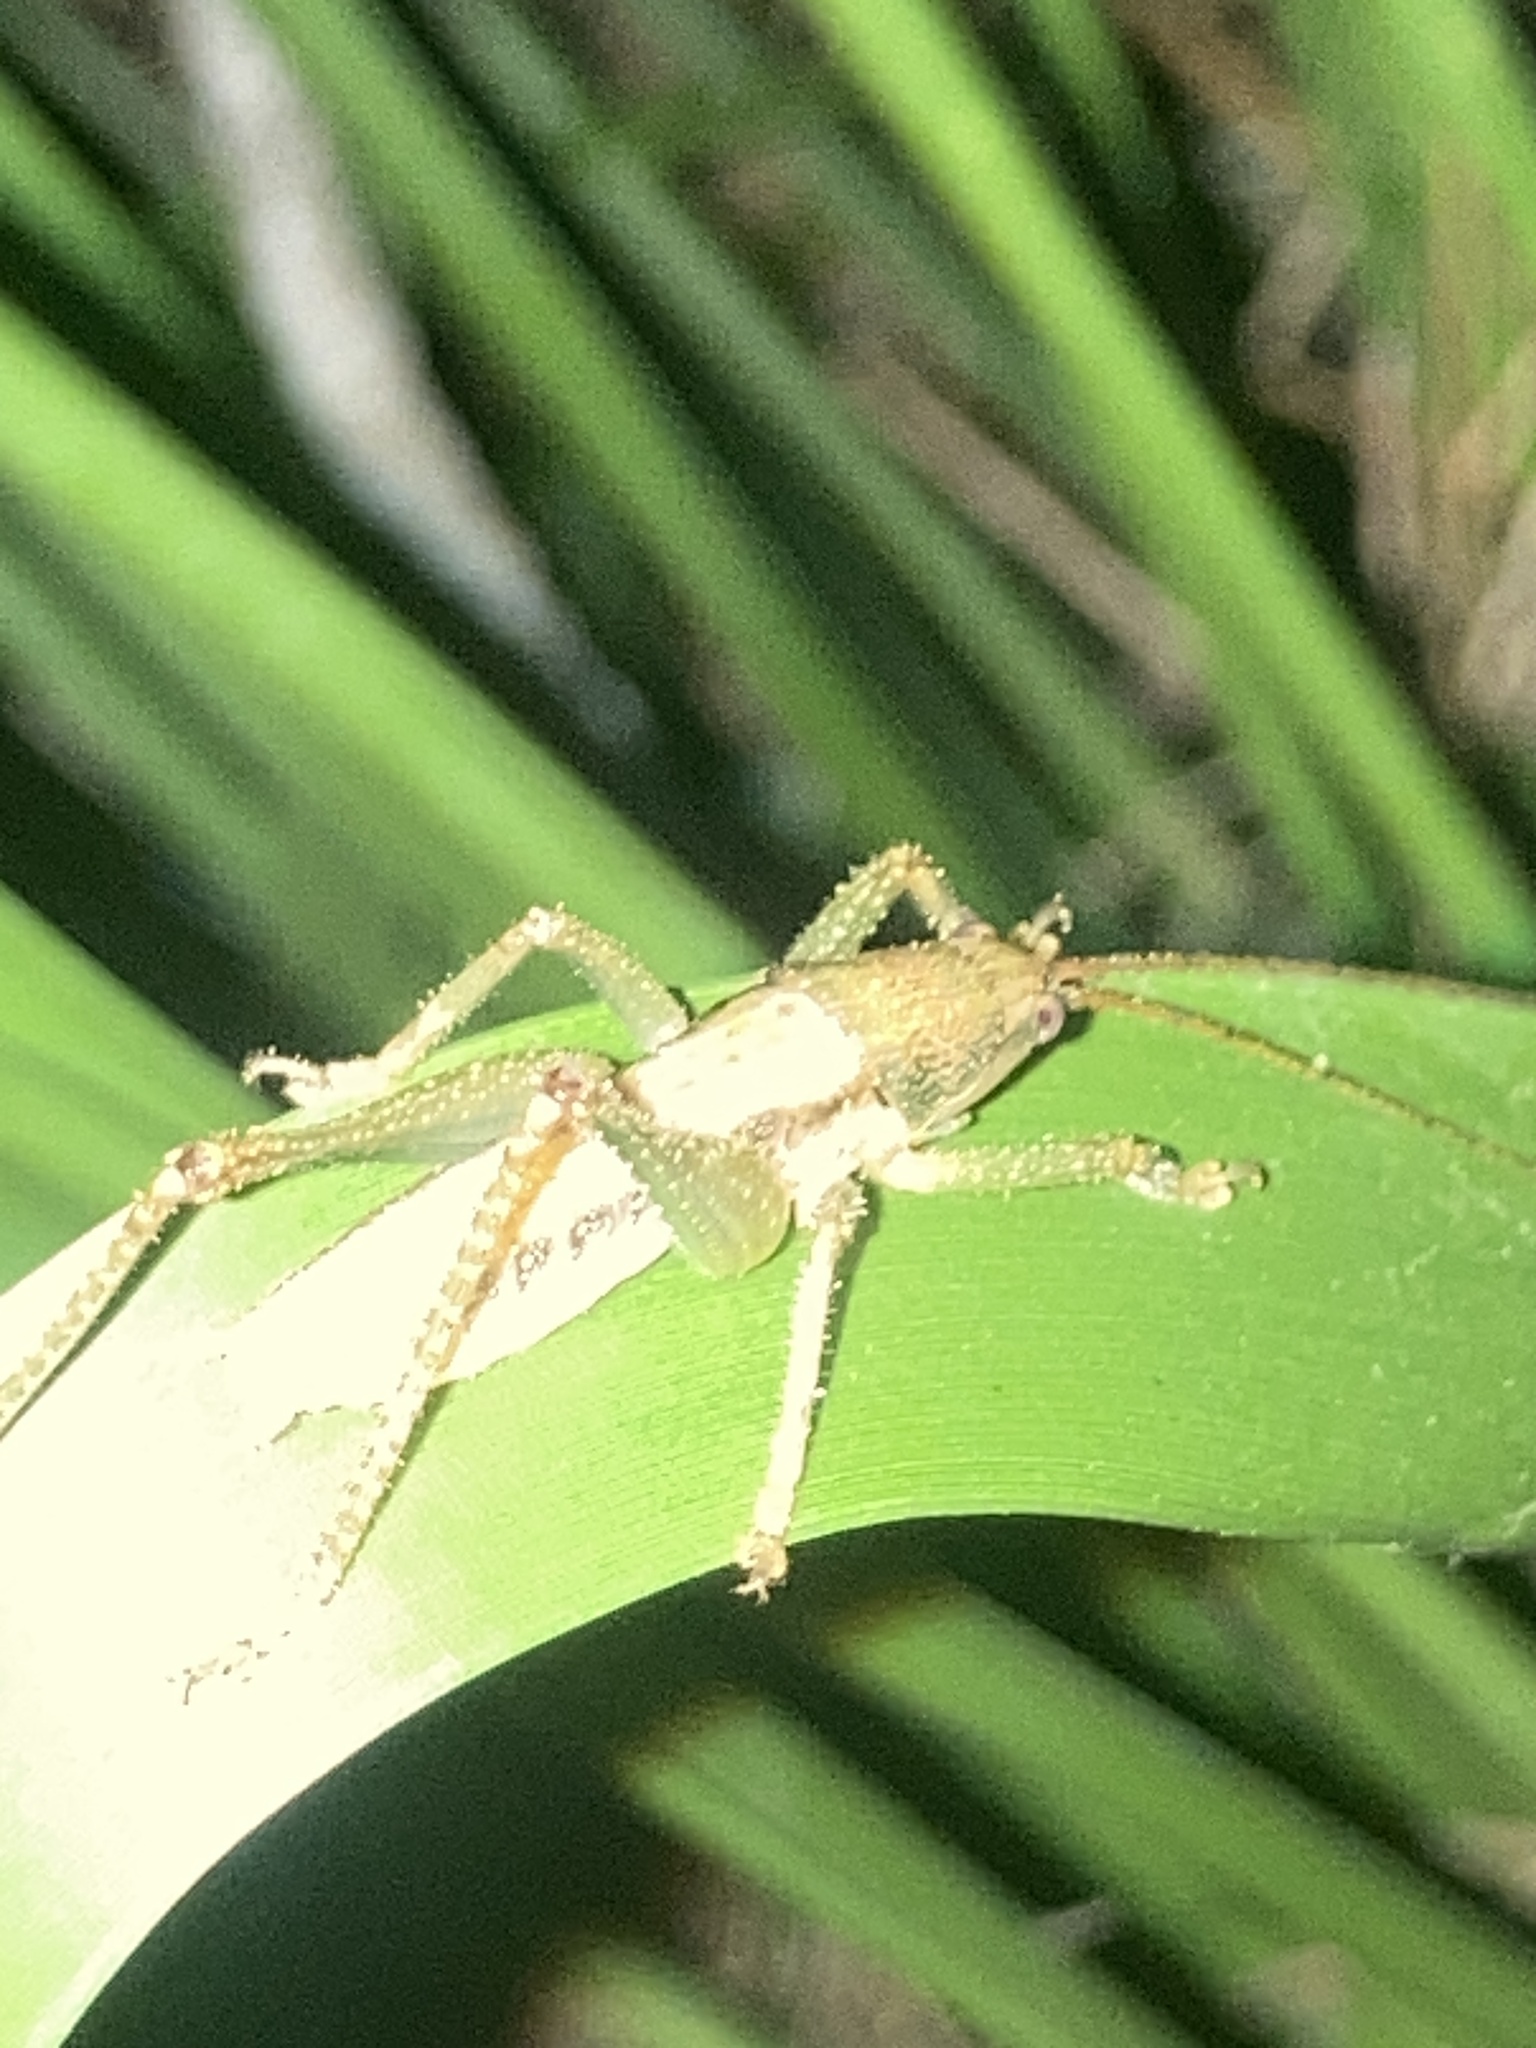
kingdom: Animalia
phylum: Arthropoda
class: Insecta
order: Orthoptera
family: Tettigoniidae
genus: Austrosalomona
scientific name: Austrosalomona falcata
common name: Olive-green coastal katydid
